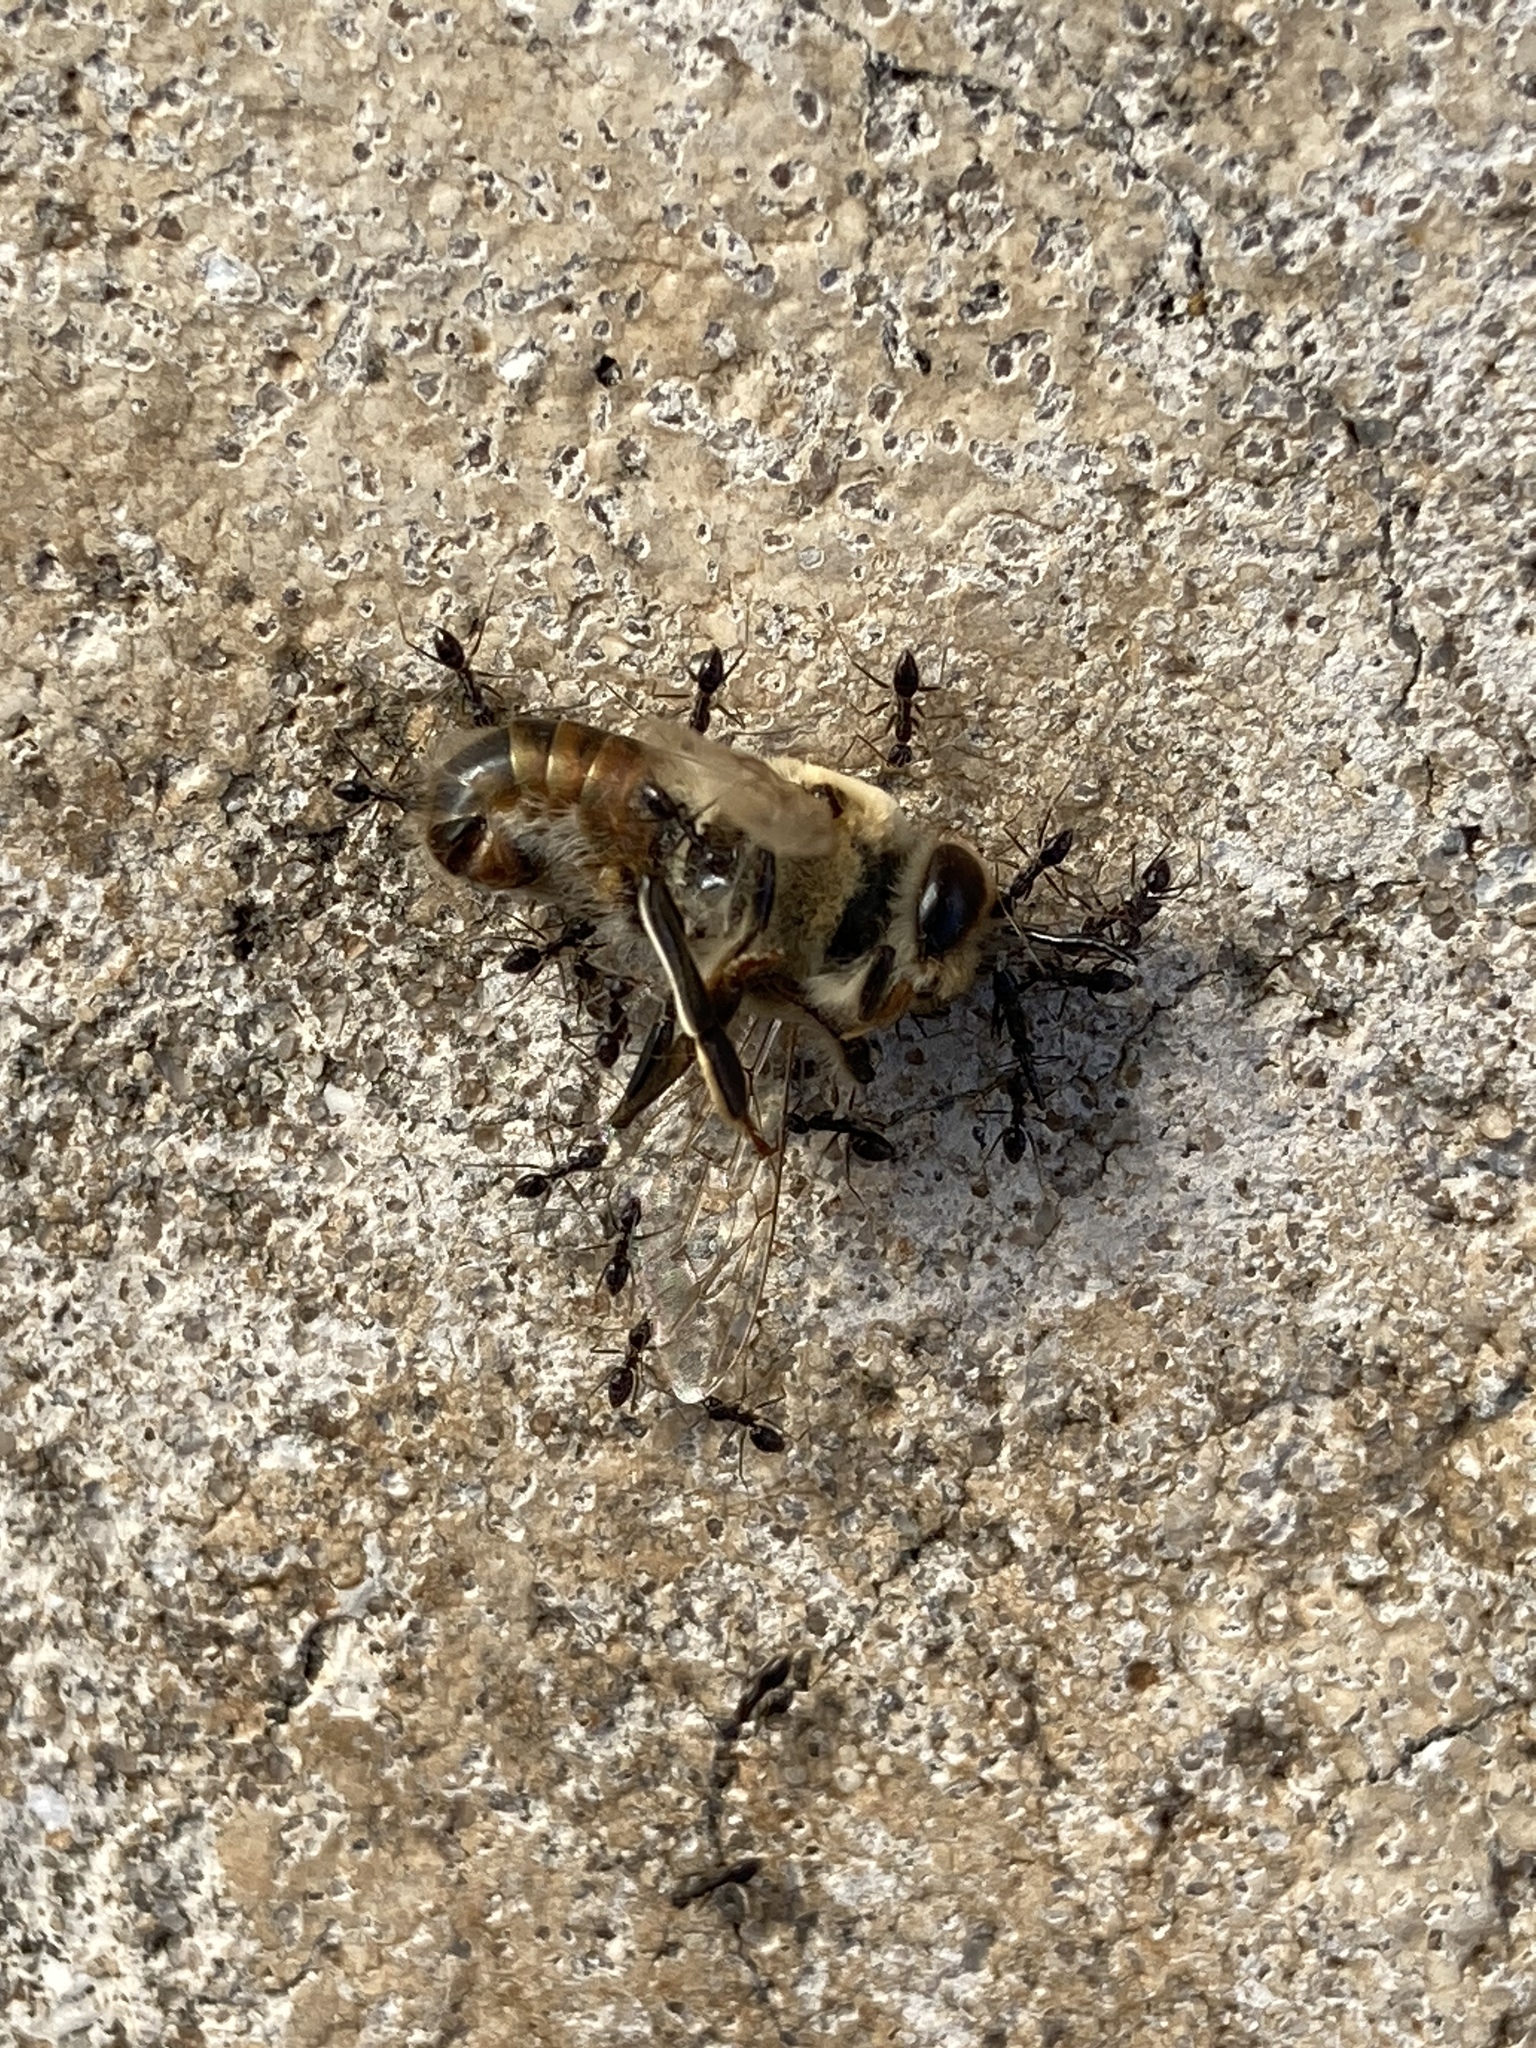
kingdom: Animalia
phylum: Arthropoda
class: Insecta
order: Hymenoptera
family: Formicidae
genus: Paratrechina
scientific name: Paratrechina longicornis
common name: Longhorned crazy ant
